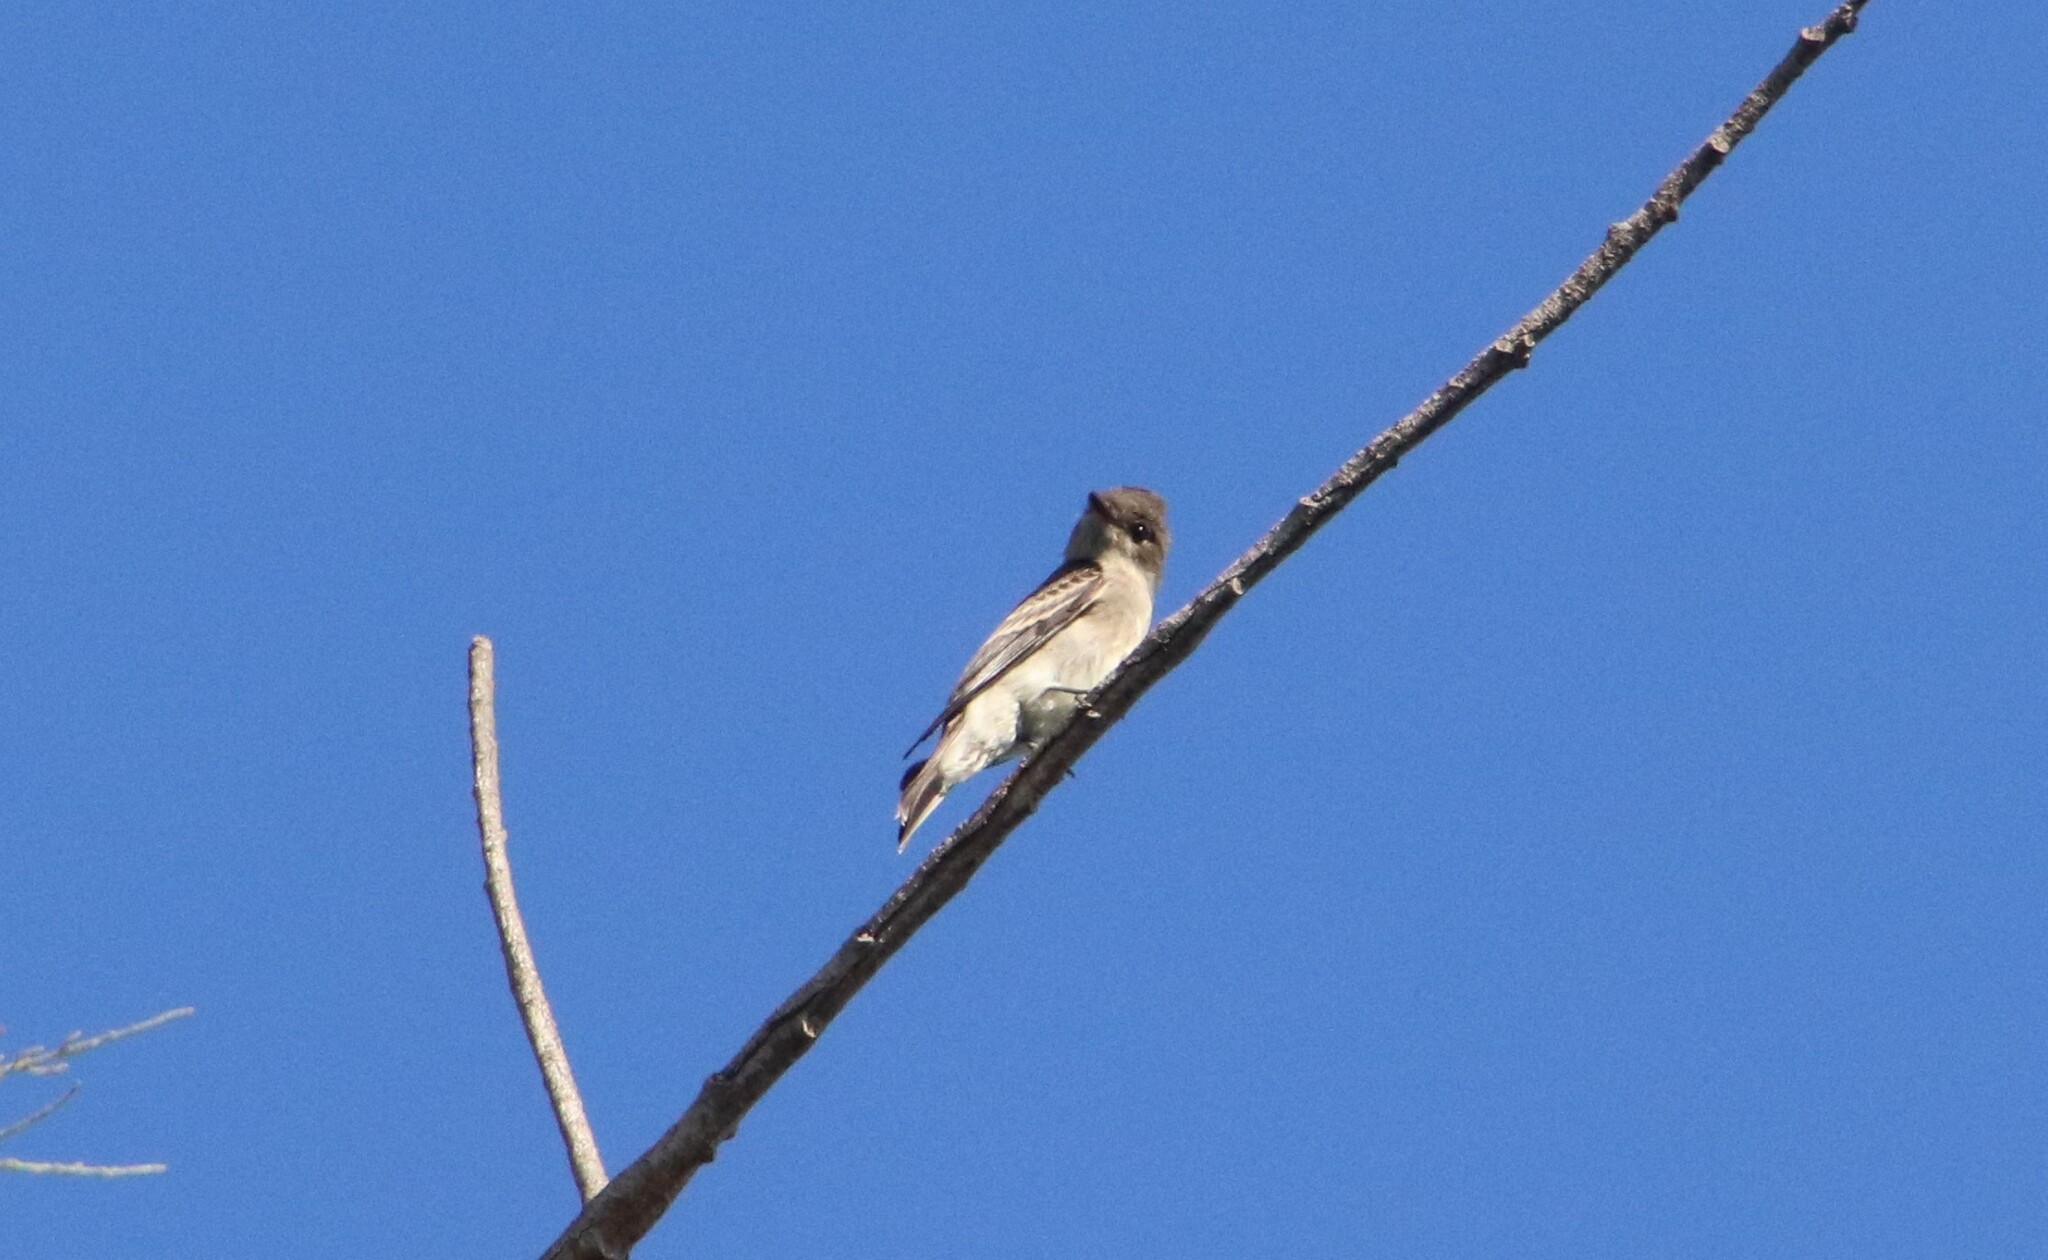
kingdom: Animalia
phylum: Chordata
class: Aves
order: Passeriformes
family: Tyrannidae
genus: Contopus
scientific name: Contopus sordidulus
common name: Western wood-pewee
